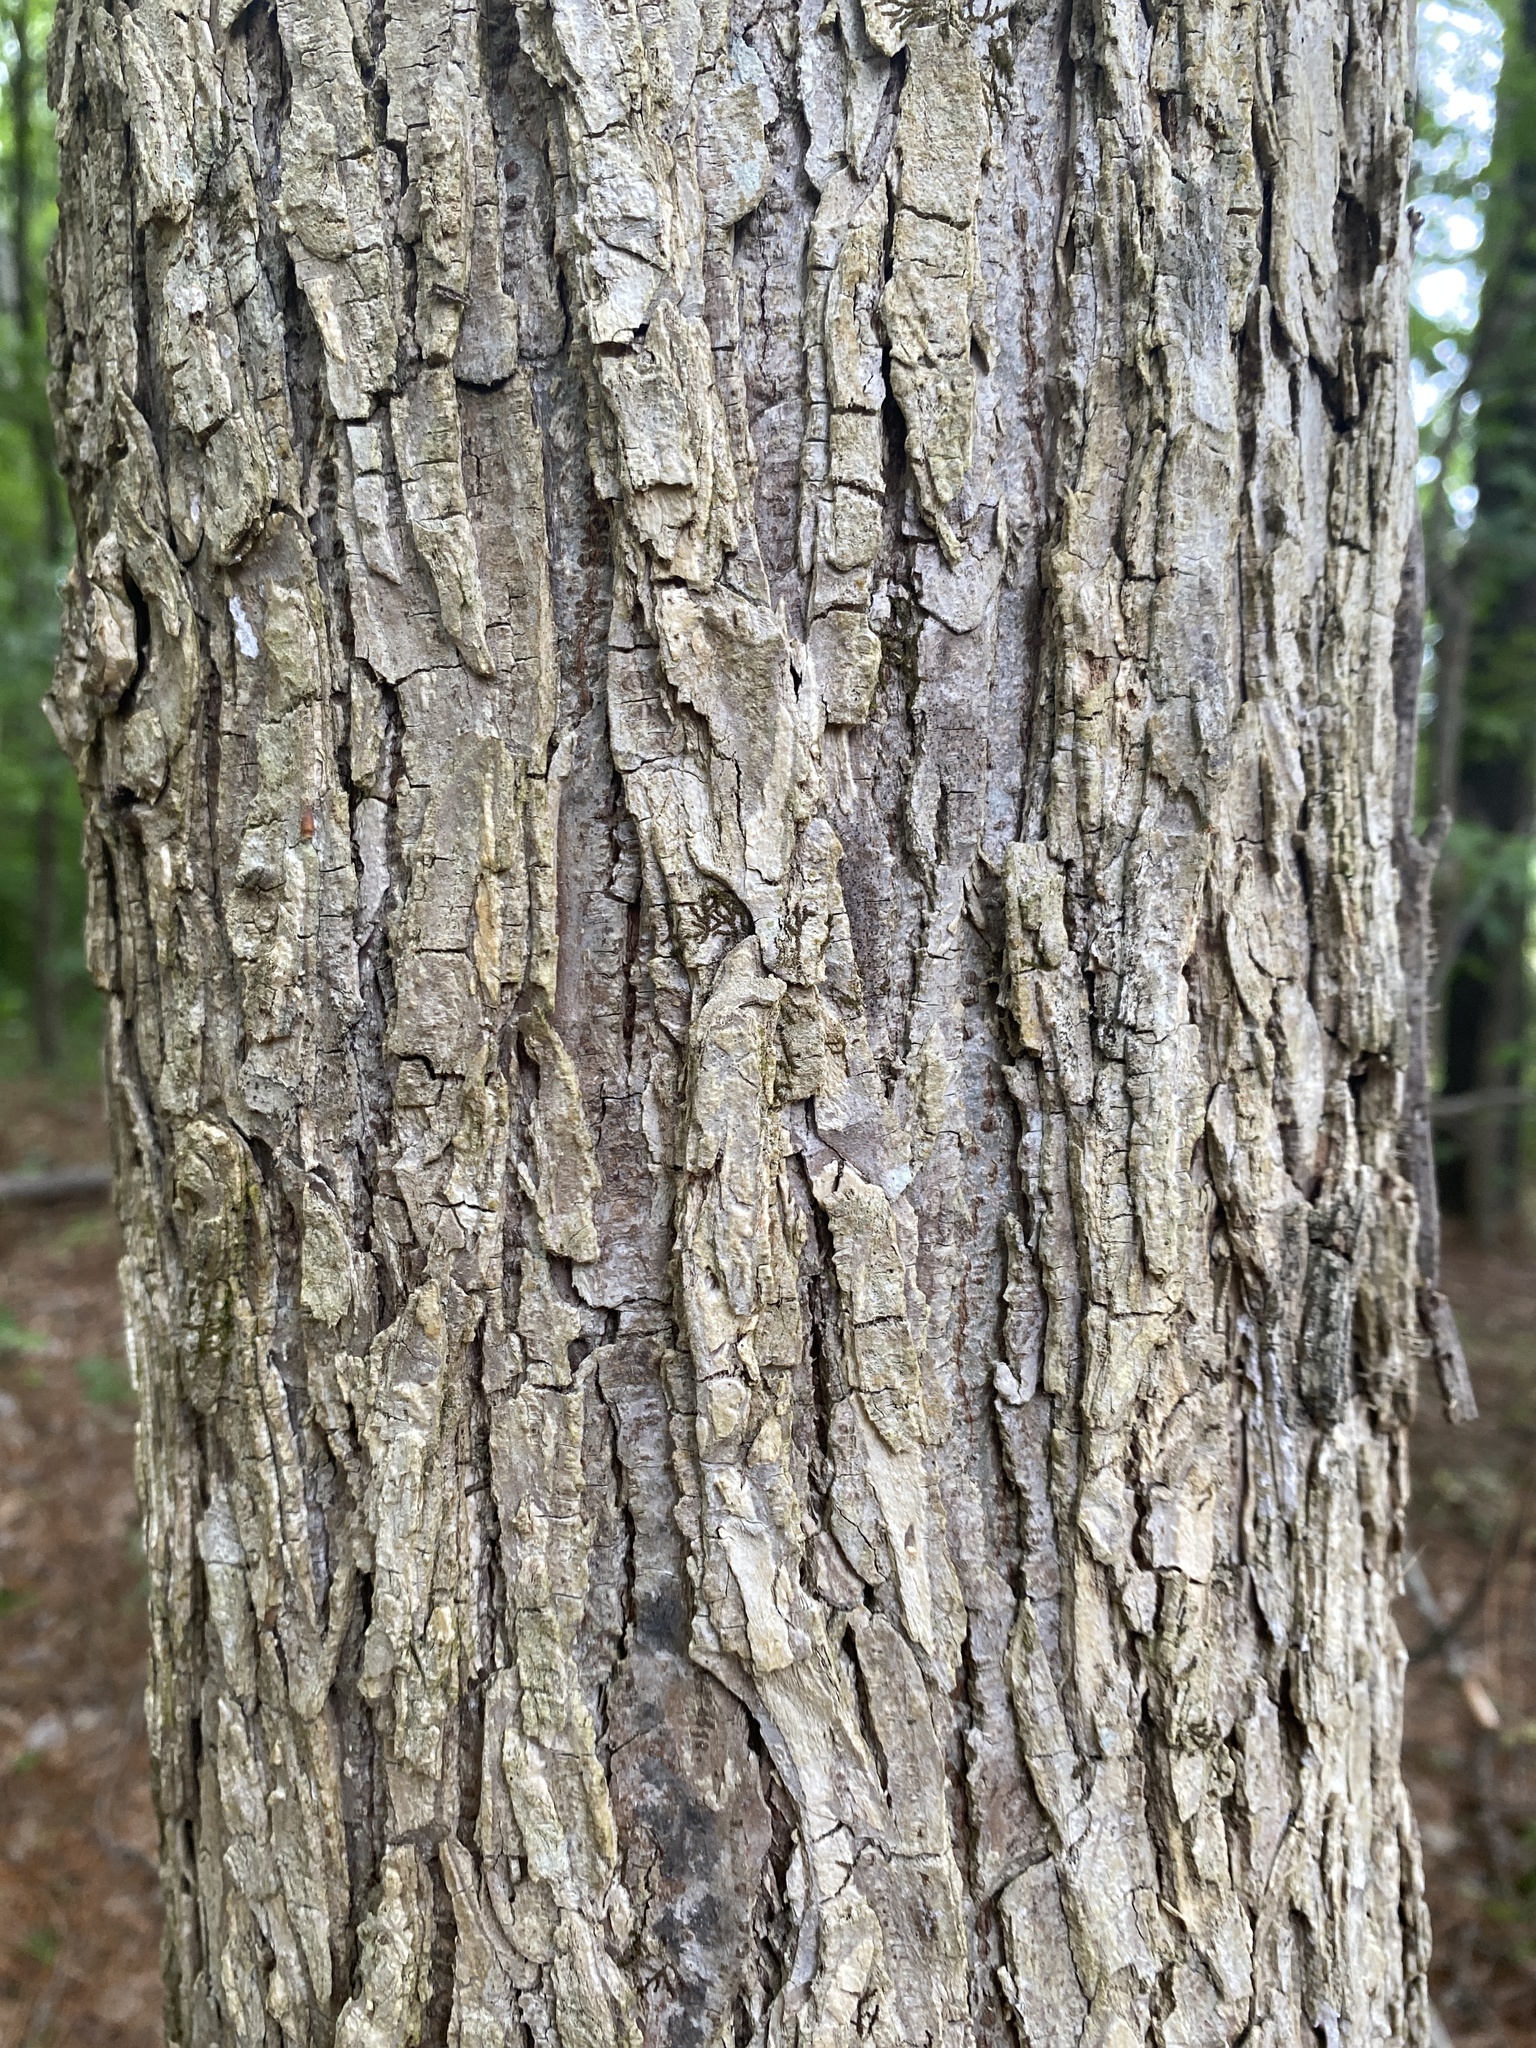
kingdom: Plantae
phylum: Tracheophyta
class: Magnoliopsida
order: Rosales
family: Ulmaceae
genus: Ulmus
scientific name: Ulmus alata
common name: Winged elm
